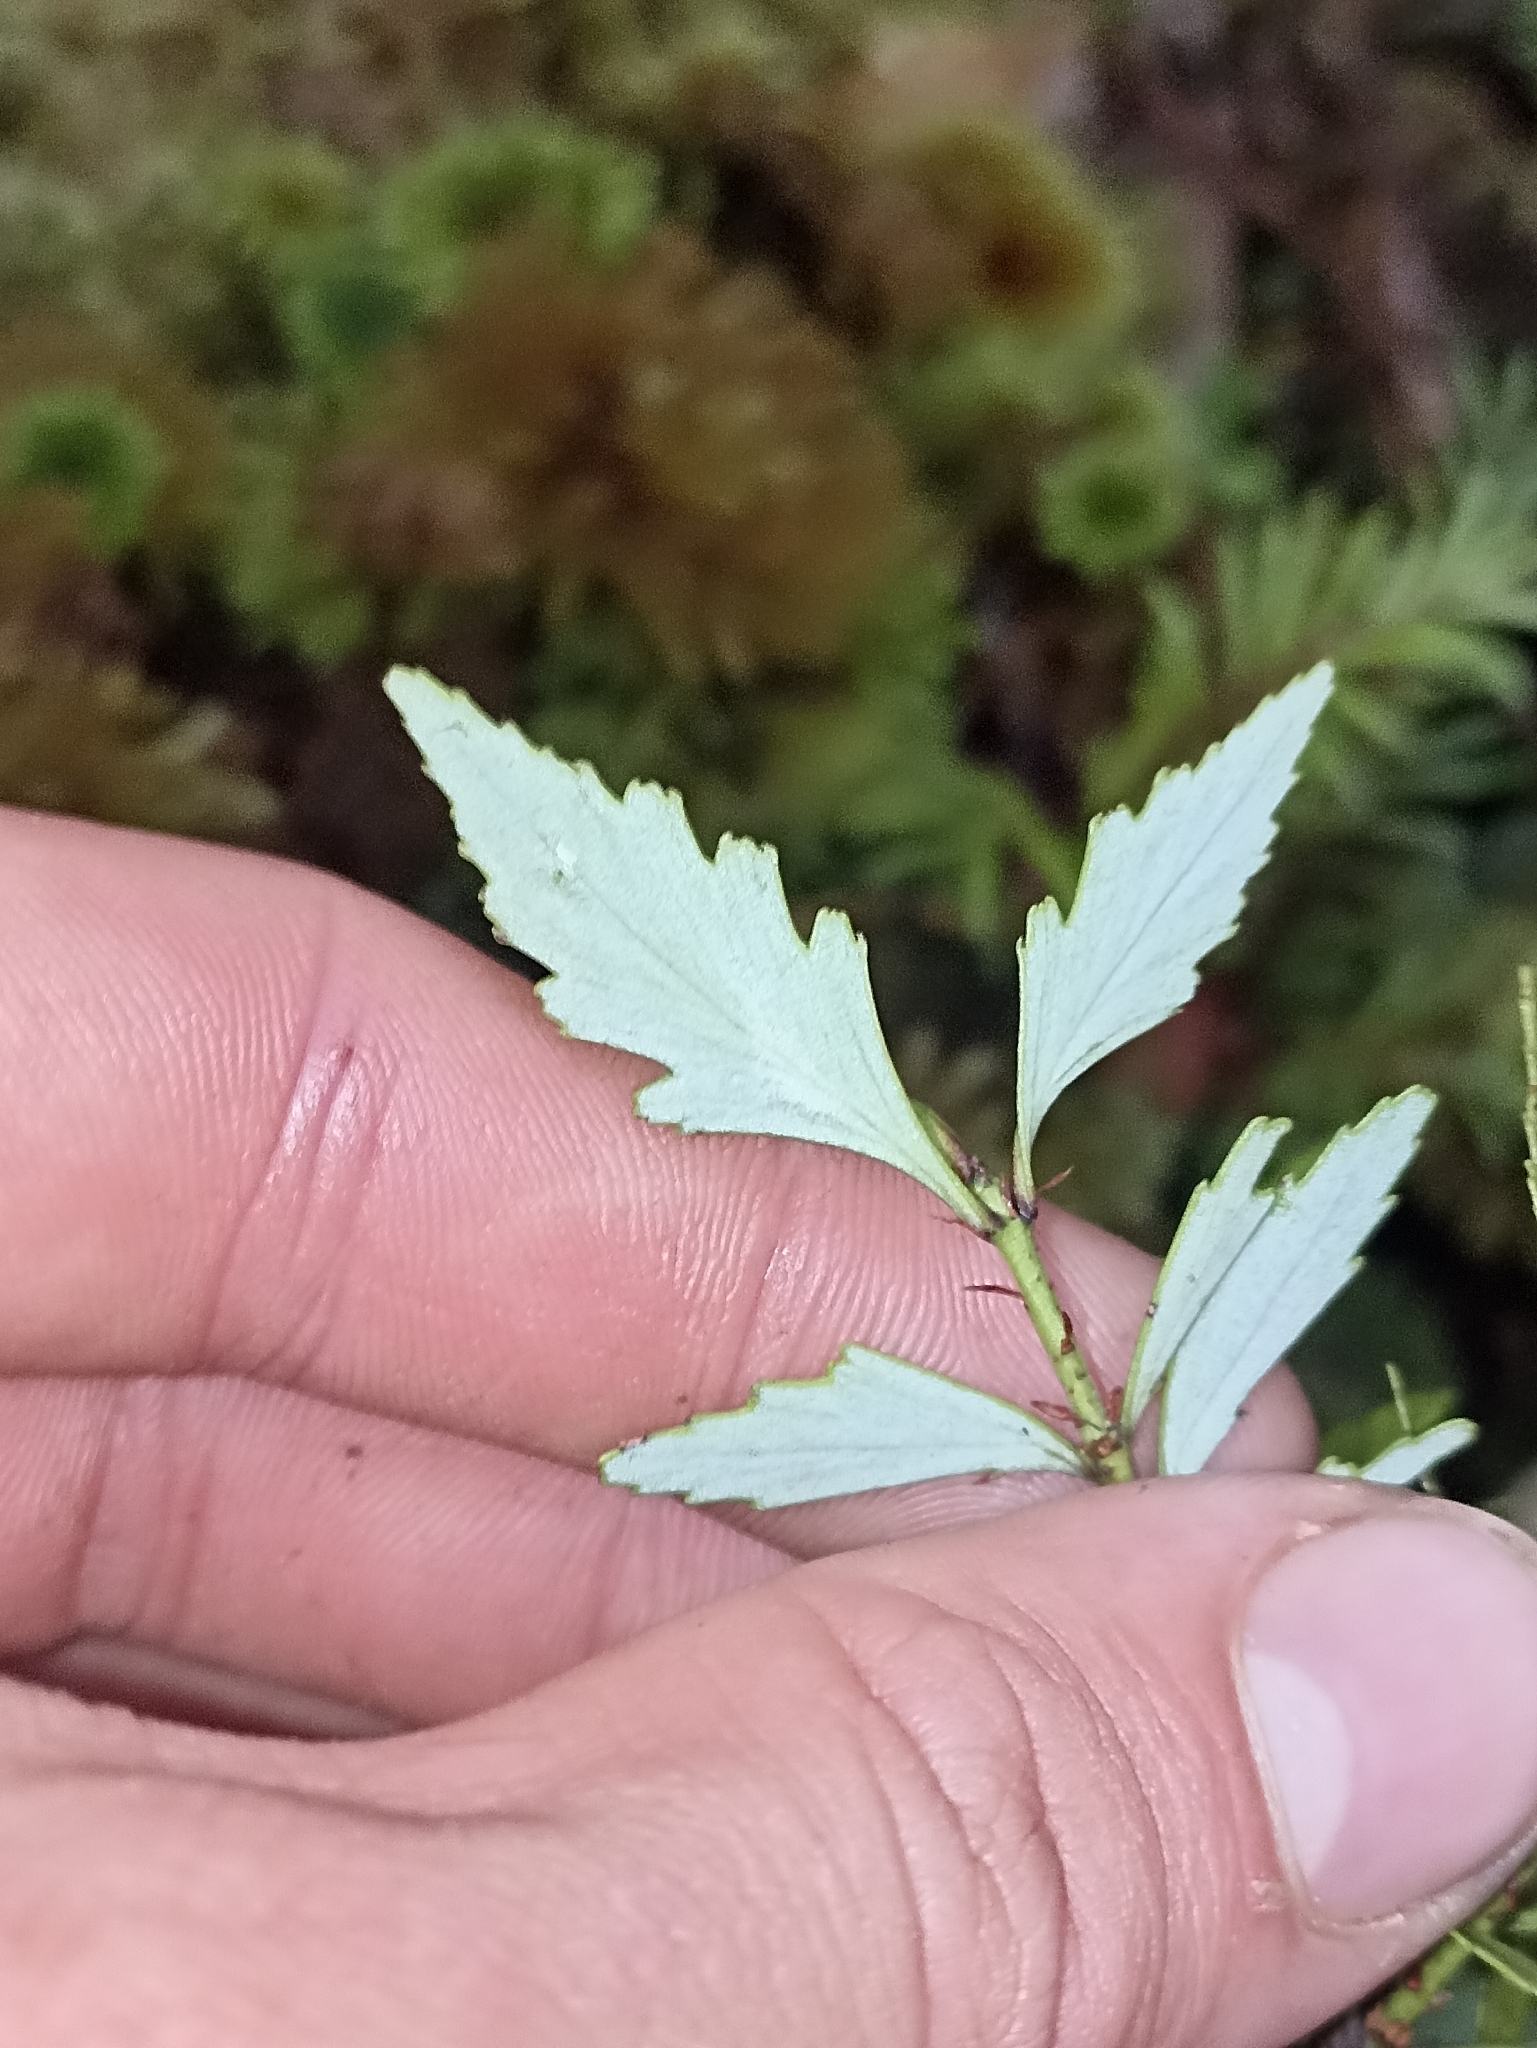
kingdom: Plantae
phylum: Tracheophyta
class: Pinopsida
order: Pinales
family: Phyllocladaceae
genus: Phyllocladus
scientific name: Phyllocladus trichomanoides
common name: Celery pine
